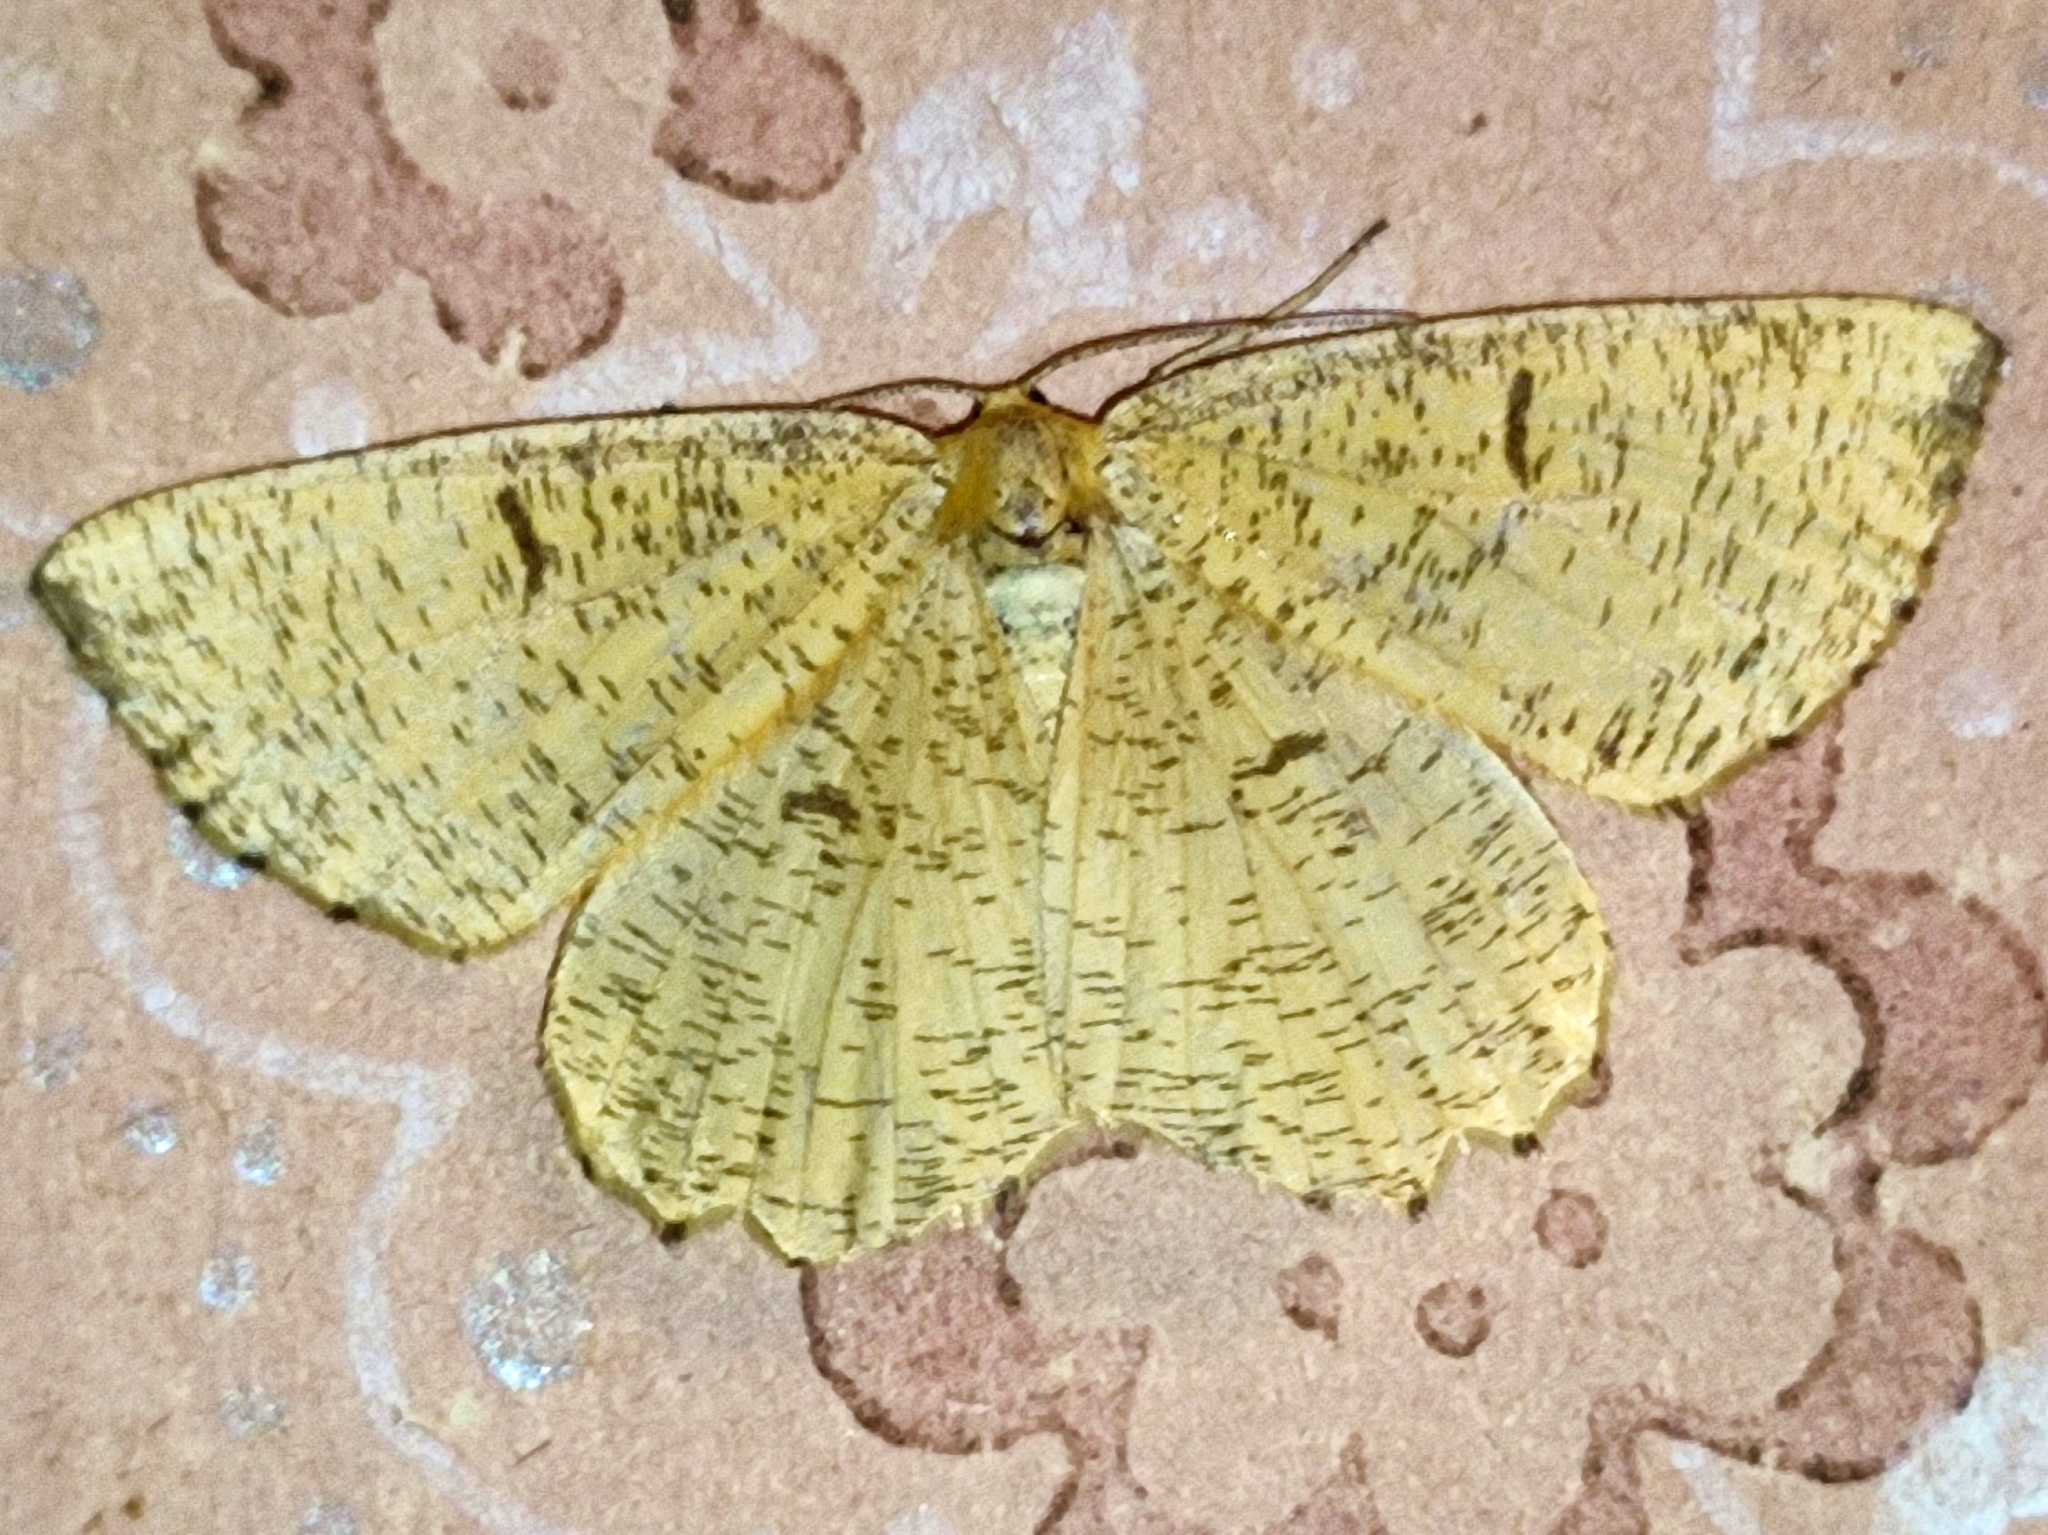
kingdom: Animalia
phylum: Arthropoda
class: Insecta
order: Lepidoptera
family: Geometridae
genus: Angerona
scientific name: Angerona prunaria
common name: Orange moth
